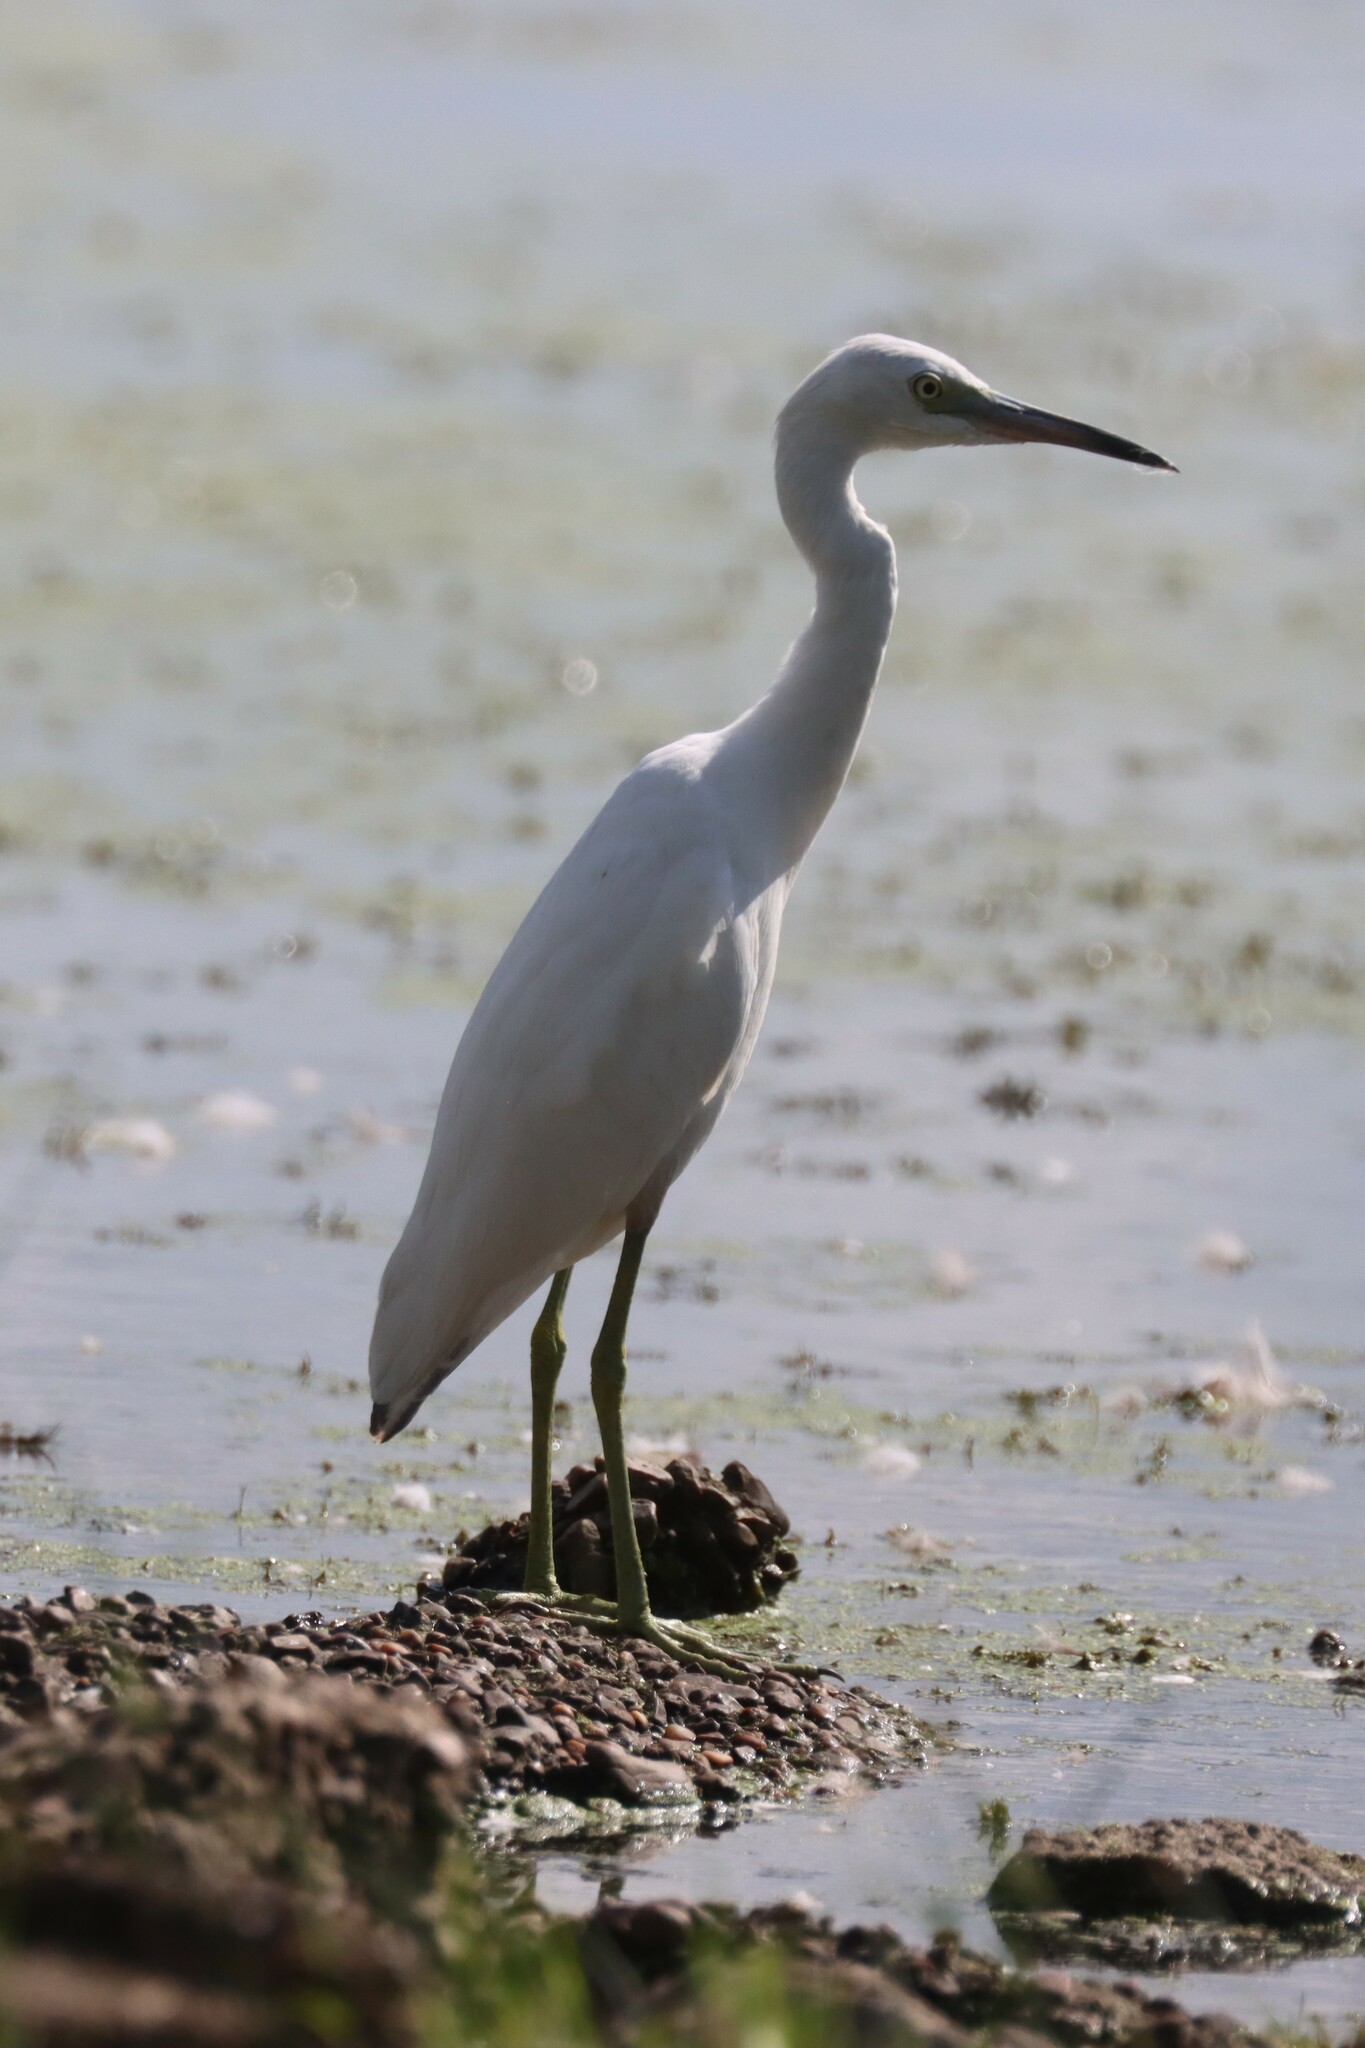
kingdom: Animalia
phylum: Chordata
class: Aves
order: Pelecaniformes
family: Ardeidae
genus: Egretta
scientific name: Egretta caerulea
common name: Little blue heron
